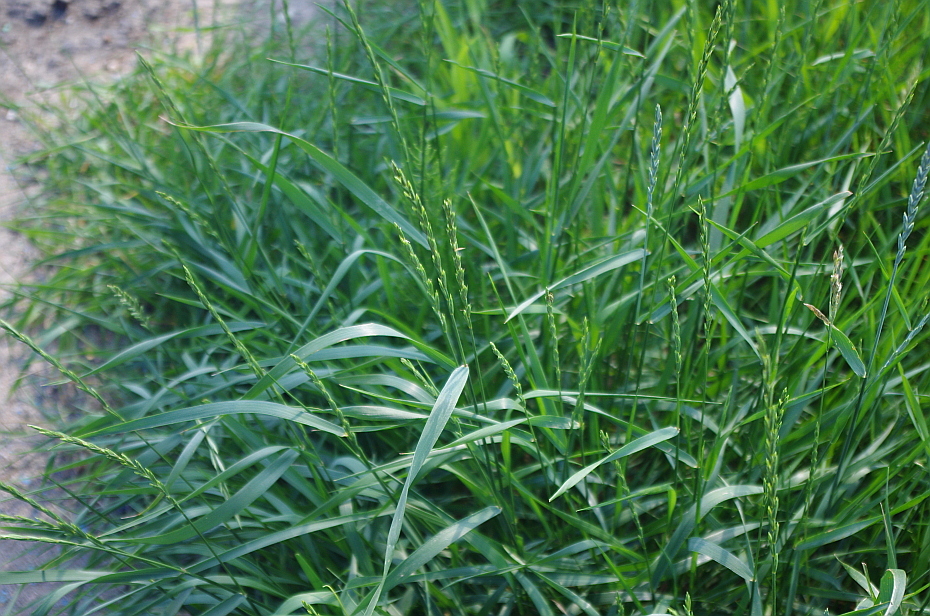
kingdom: Plantae
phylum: Tracheophyta
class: Liliopsida
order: Poales
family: Poaceae
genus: Elymus
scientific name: Elymus repens
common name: Quackgrass
